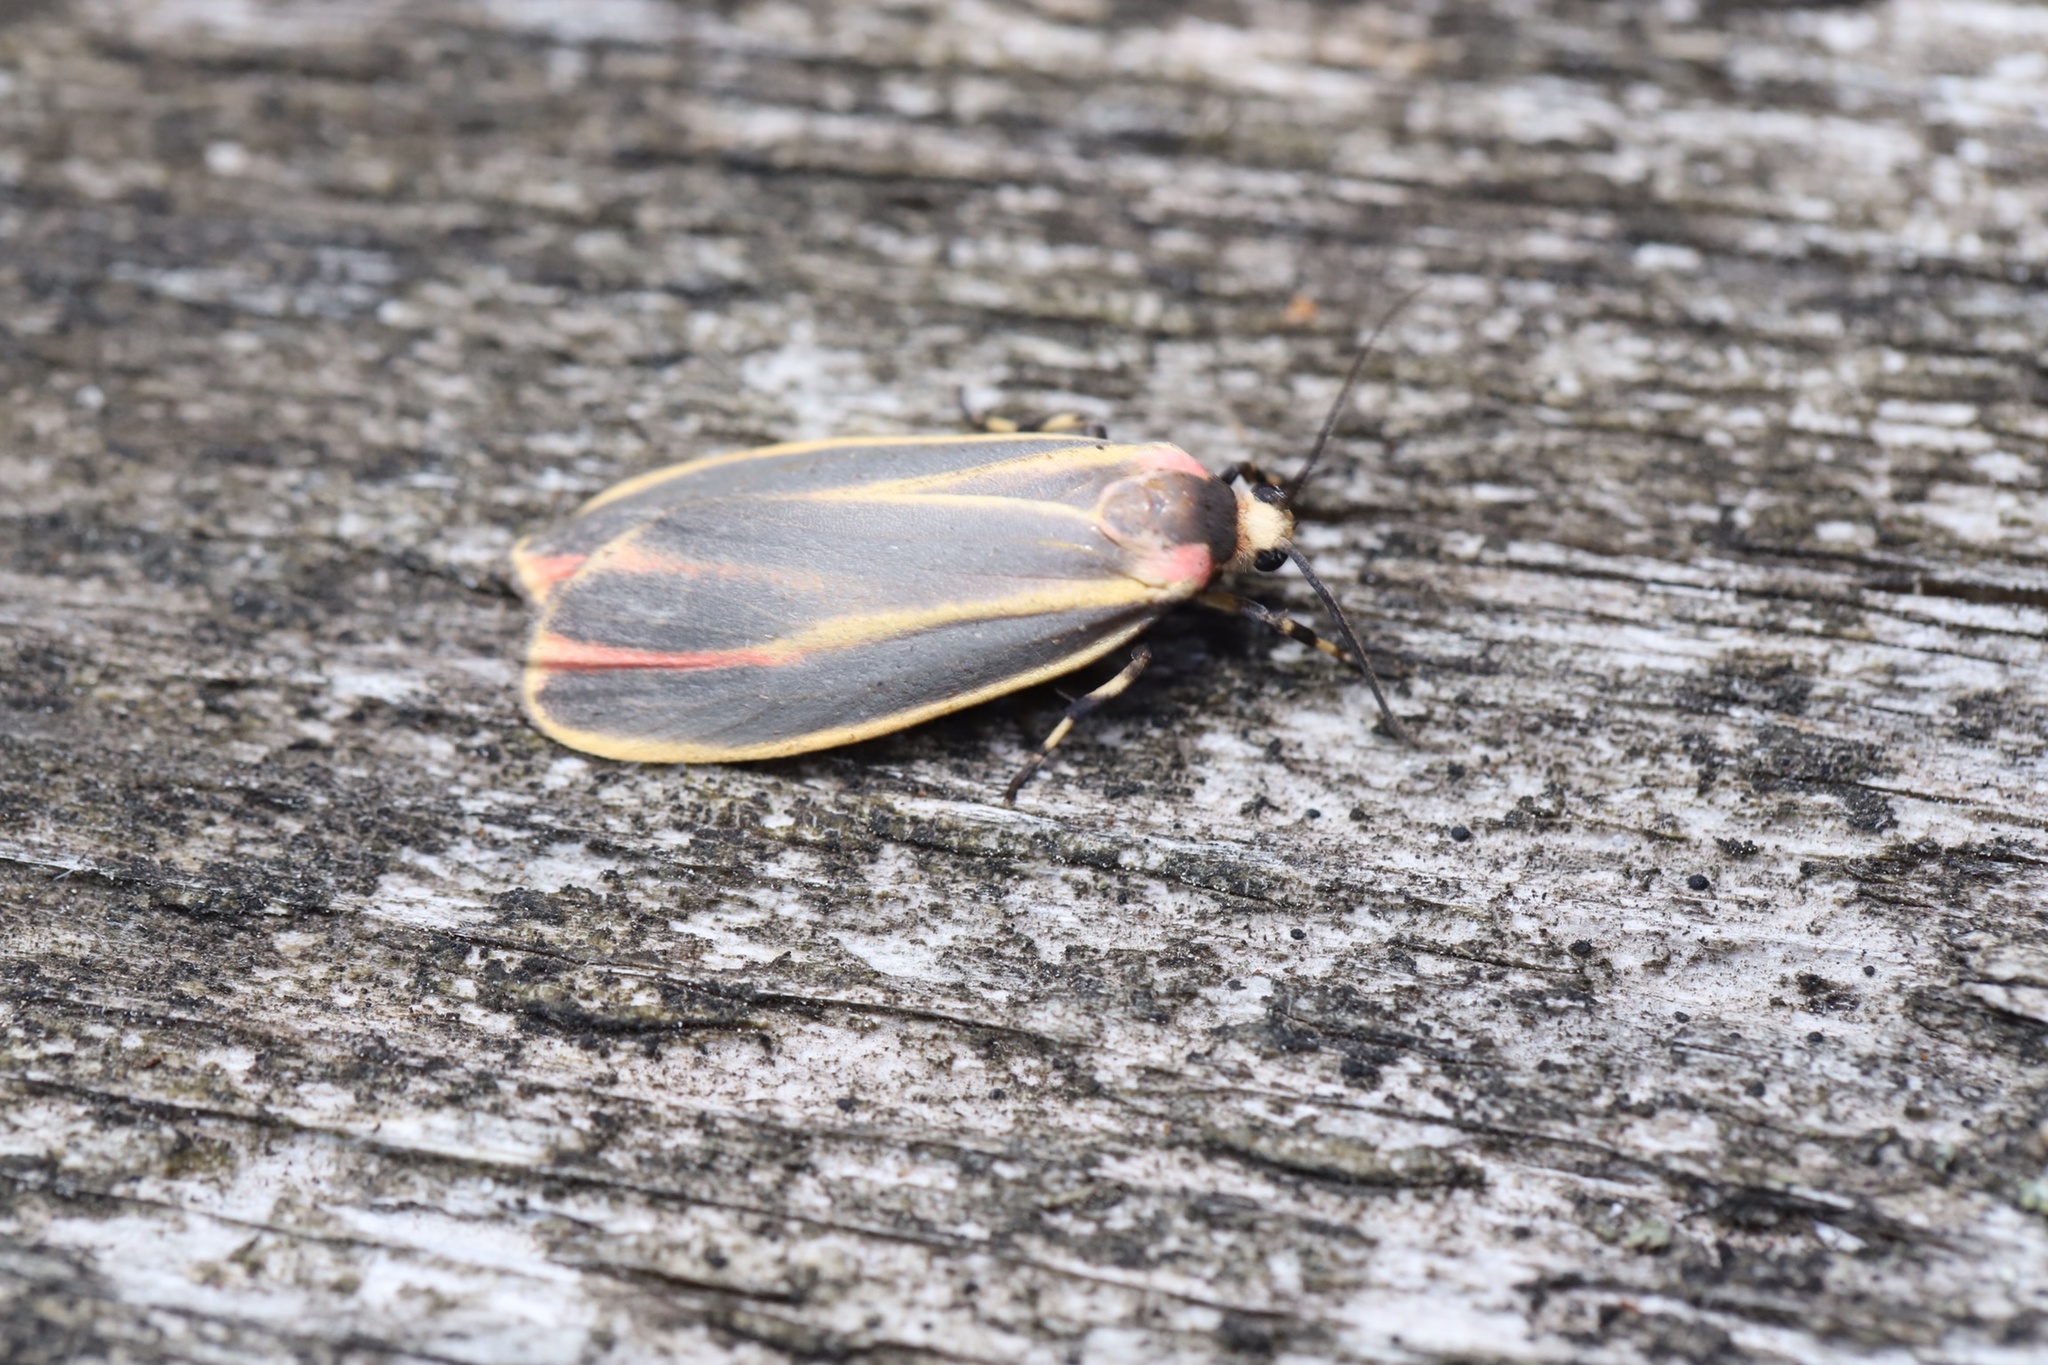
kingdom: Animalia
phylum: Arthropoda
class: Insecta
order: Lepidoptera
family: Erebidae
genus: Hypoprepia
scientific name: Hypoprepia fucosa
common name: Painted lichen moth
